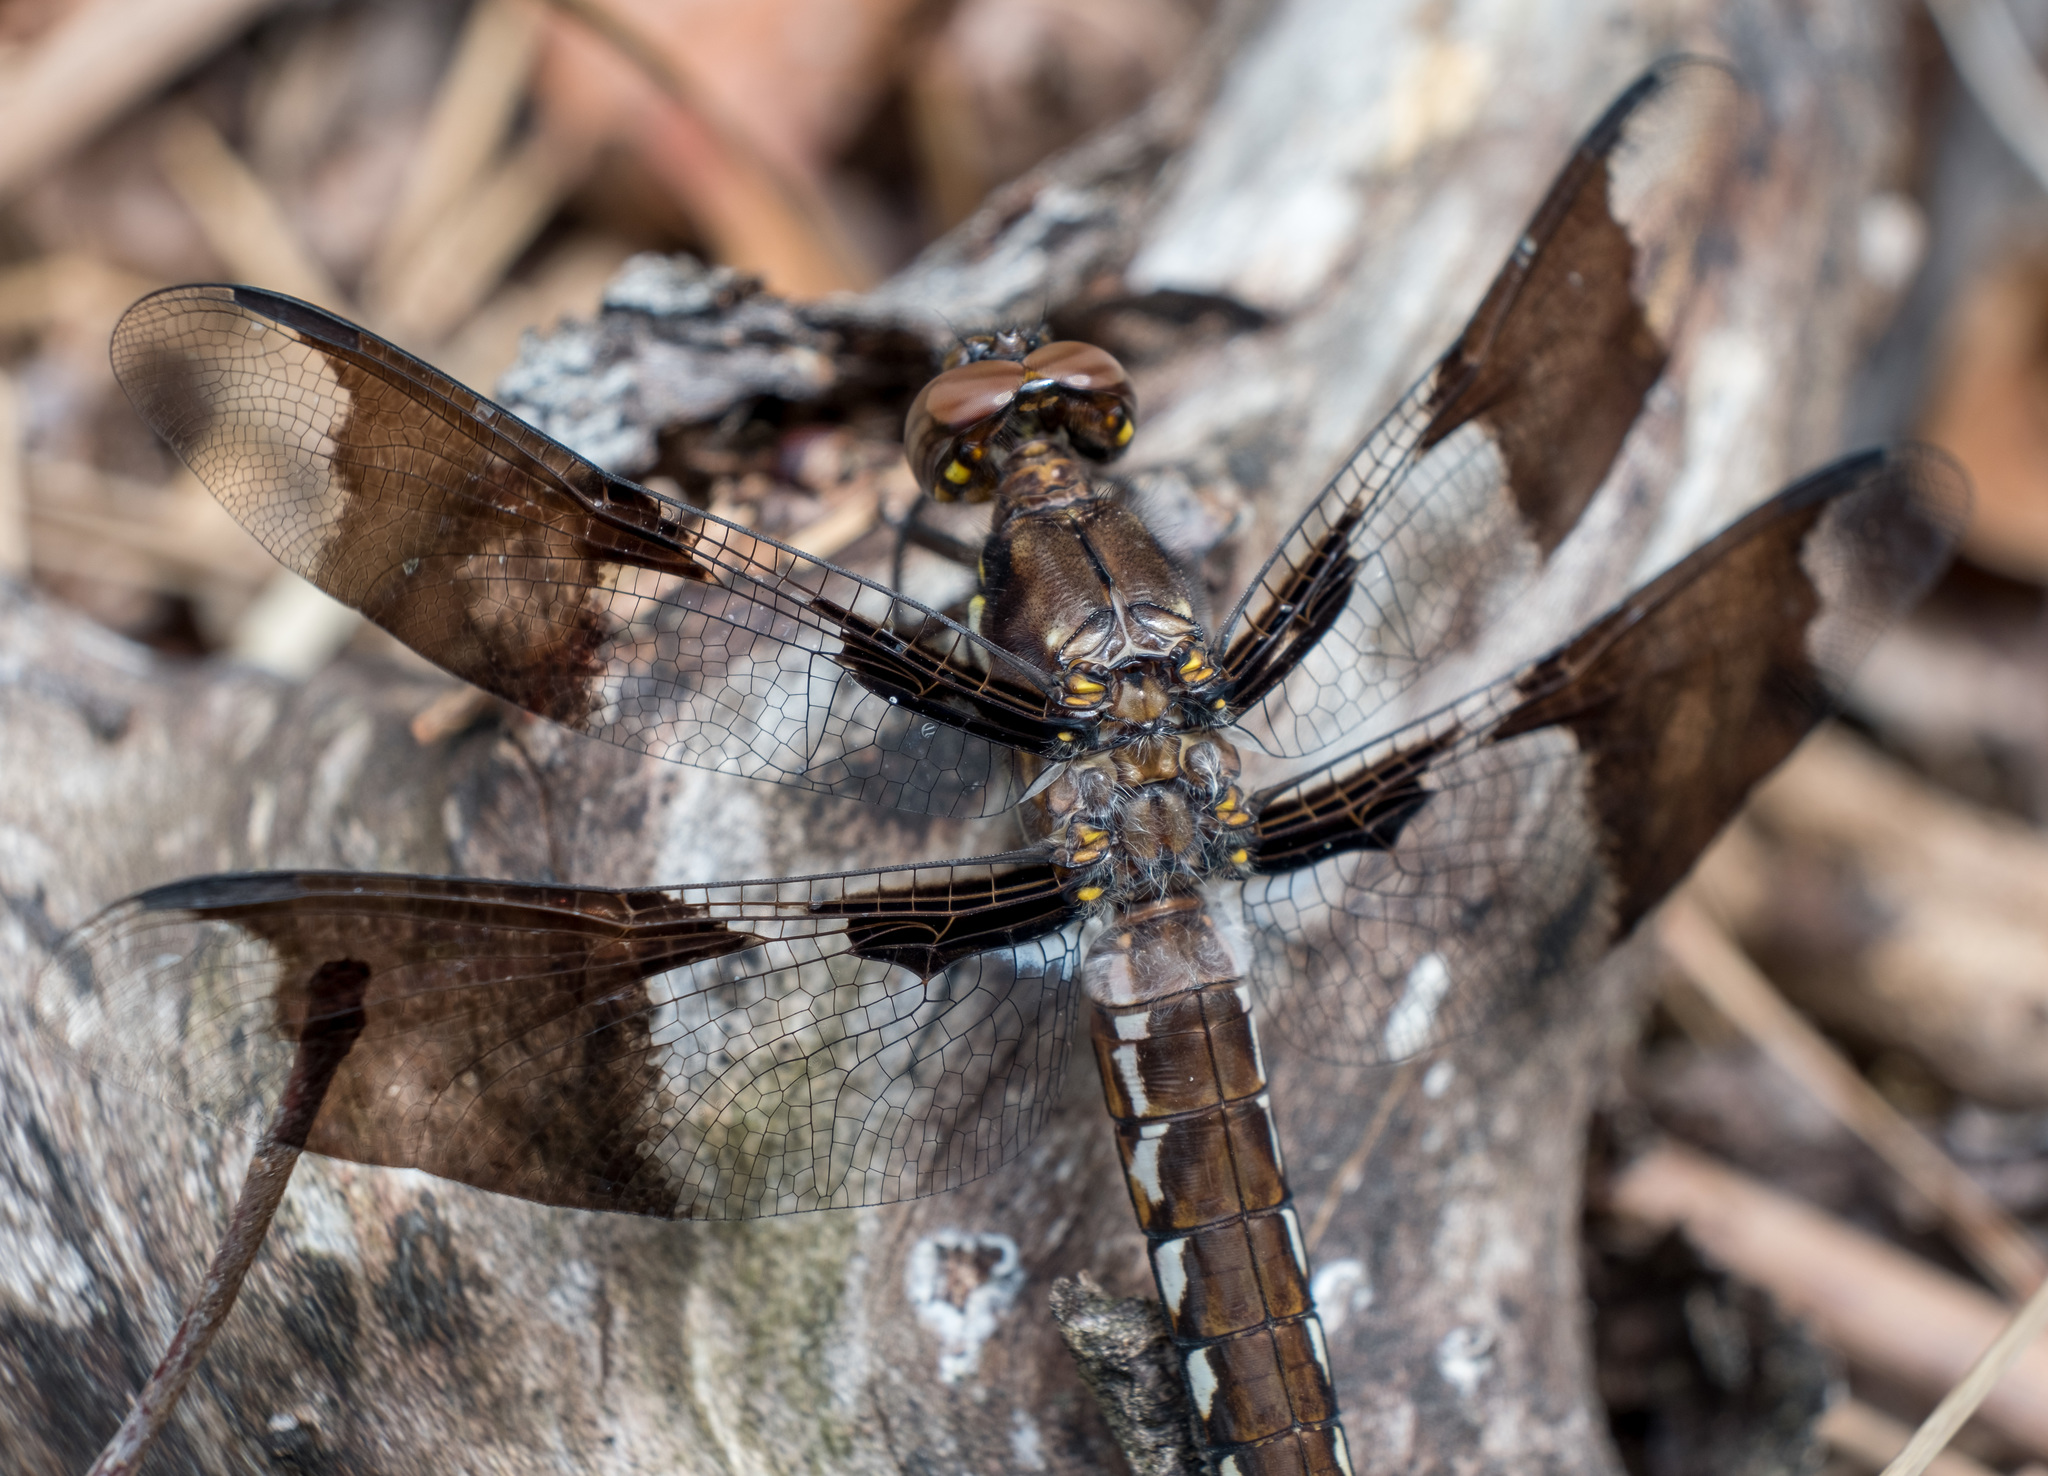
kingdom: Animalia
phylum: Arthropoda
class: Insecta
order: Odonata
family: Libellulidae
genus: Plathemis
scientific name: Plathemis lydia
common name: Common whitetail
